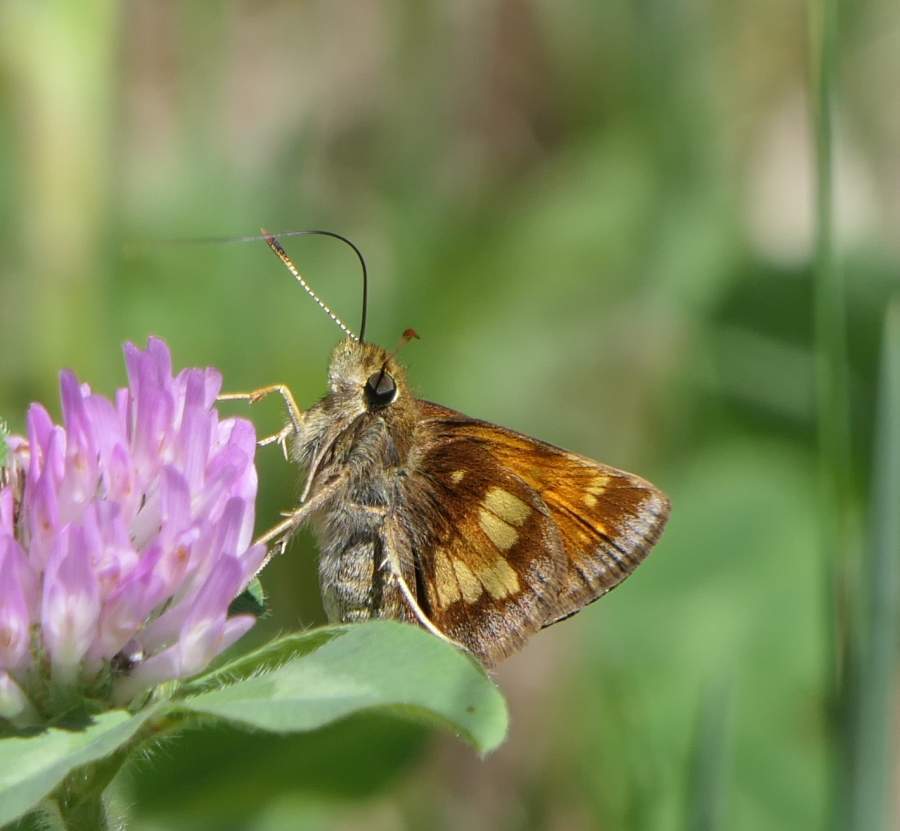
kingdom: Animalia
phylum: Arthropoda
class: Insecta
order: Lepidoptera
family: Hesperiidae
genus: Lon
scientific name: Lon hobomok
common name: Hobomok skipper
